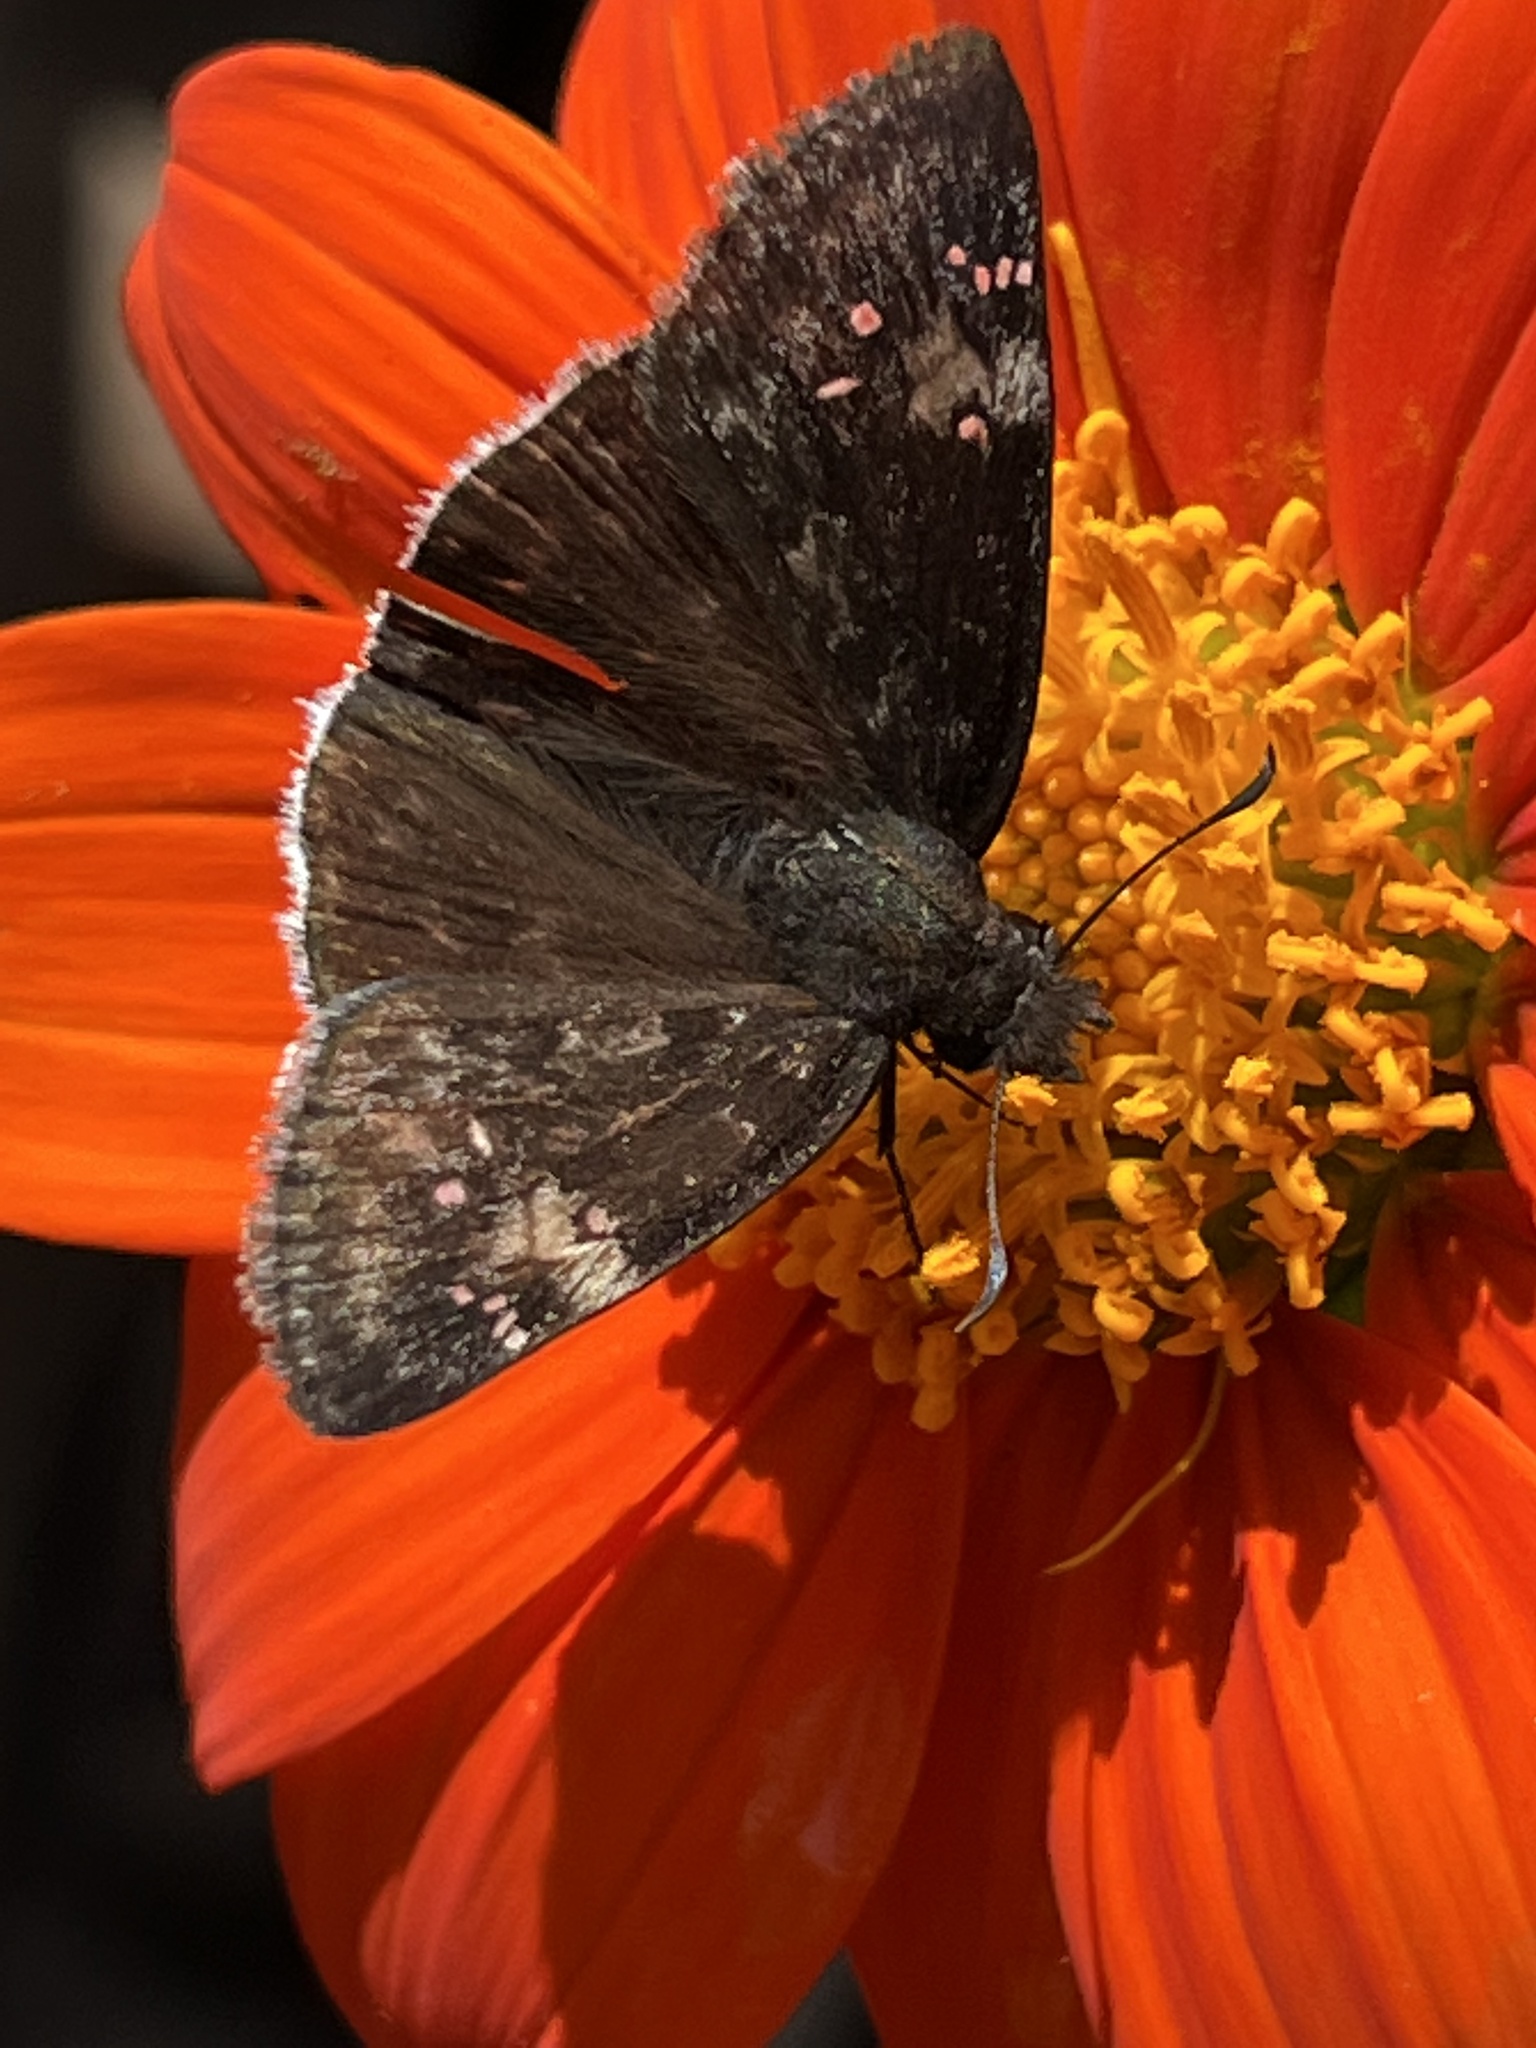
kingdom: Animalia
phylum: Arthropoda
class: Insecta
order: Lepidoptera
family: Hesperiidae
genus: Erynnis
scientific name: Erynnis funeralis
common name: Funereal duskywing
